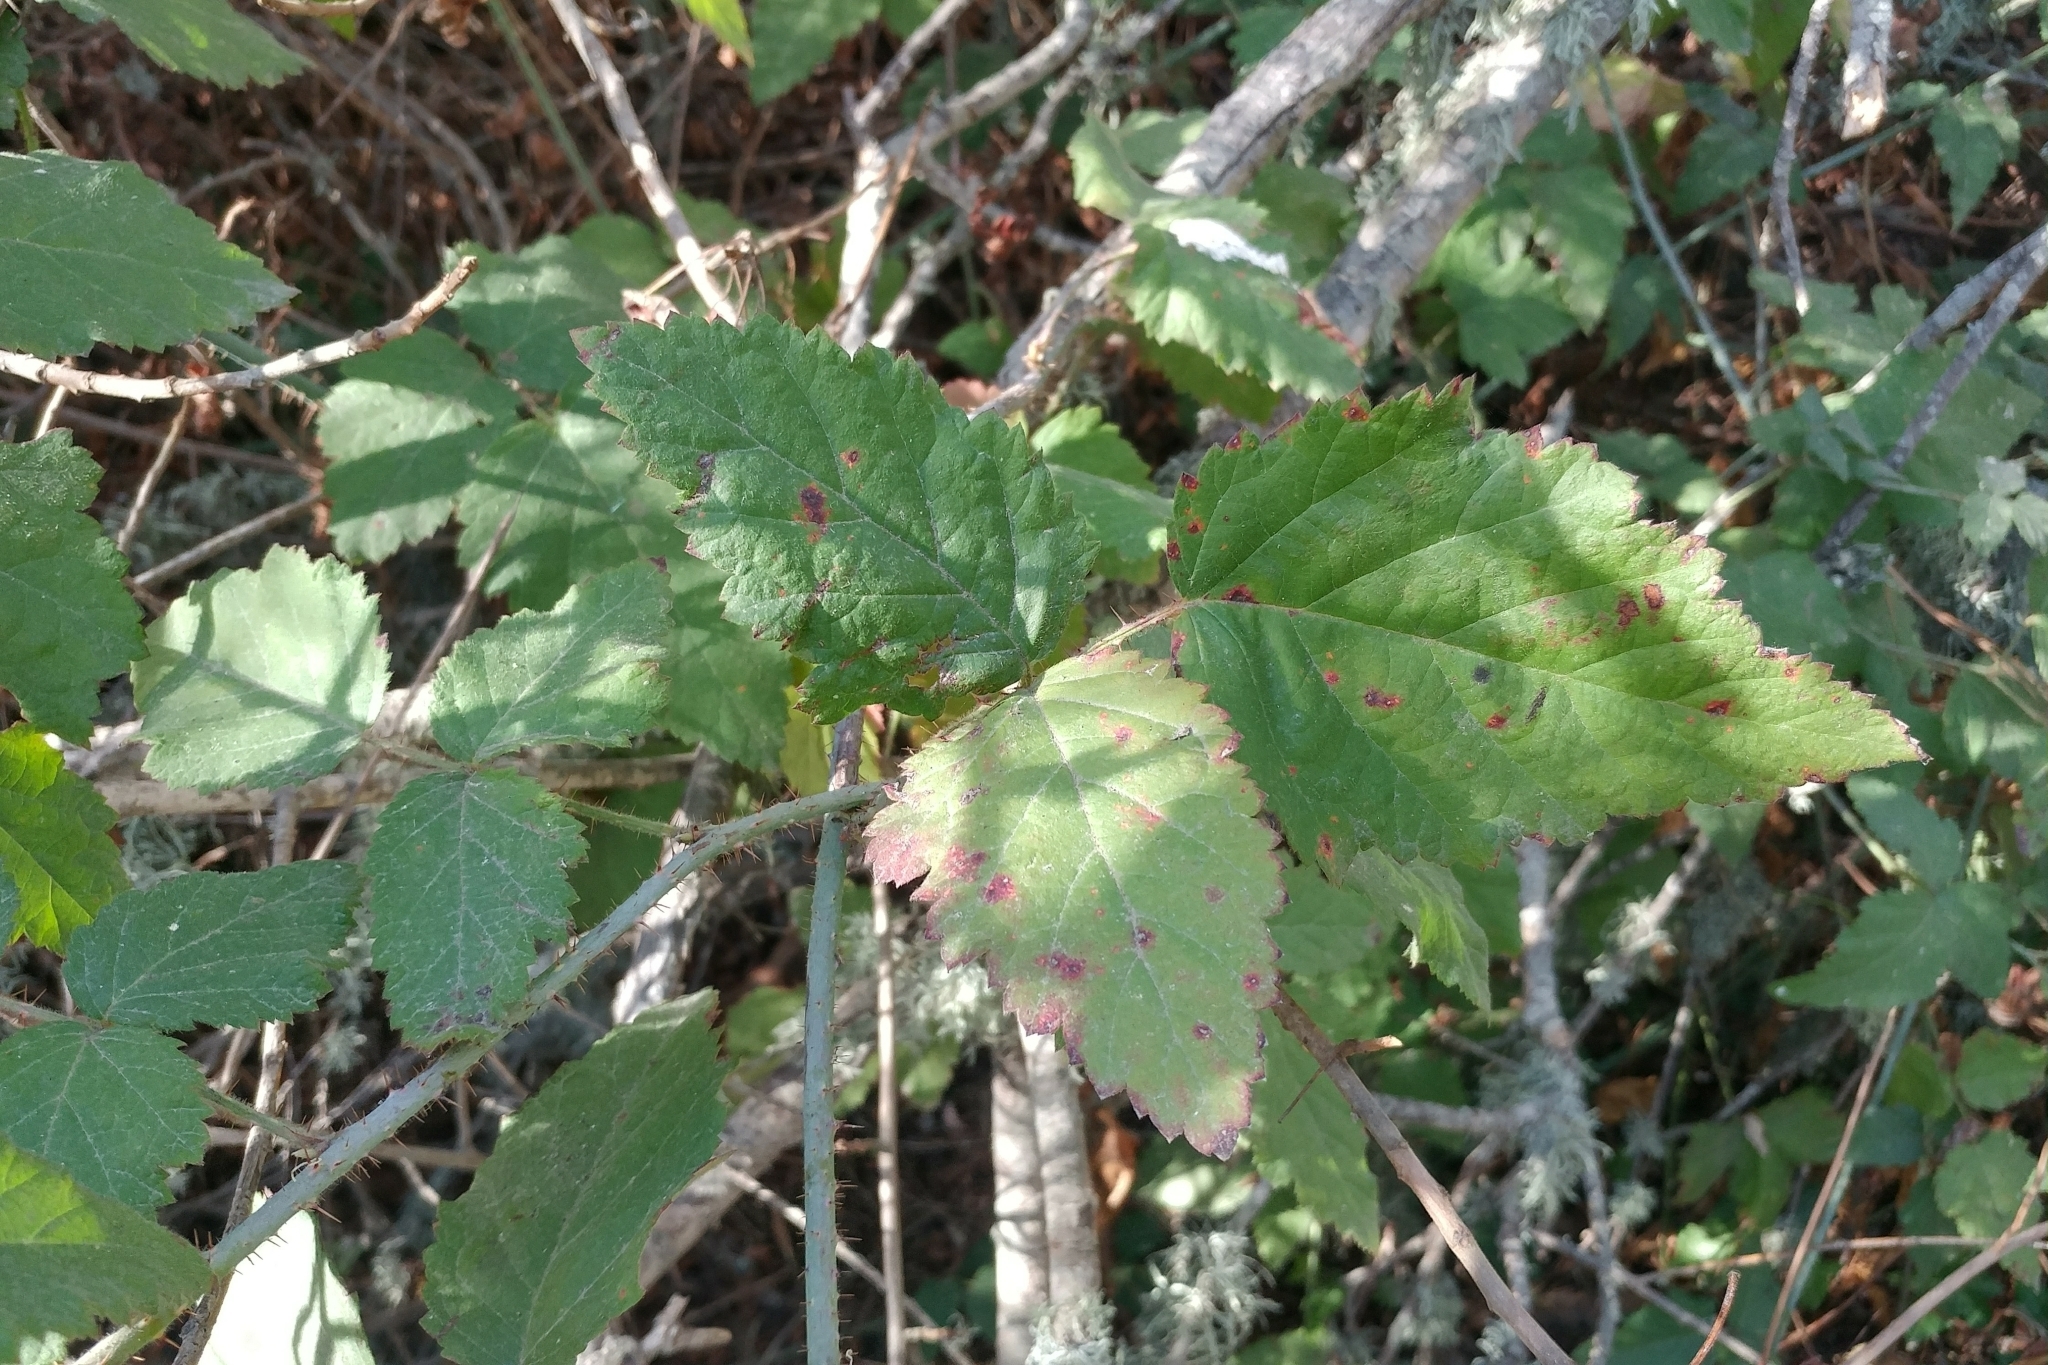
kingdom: Plantae
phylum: Tracheophyta
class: Magnoliopsida
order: Rosales
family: Rosaceae
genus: Rubus
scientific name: Rubus ursinus
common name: Pacific blackberry
